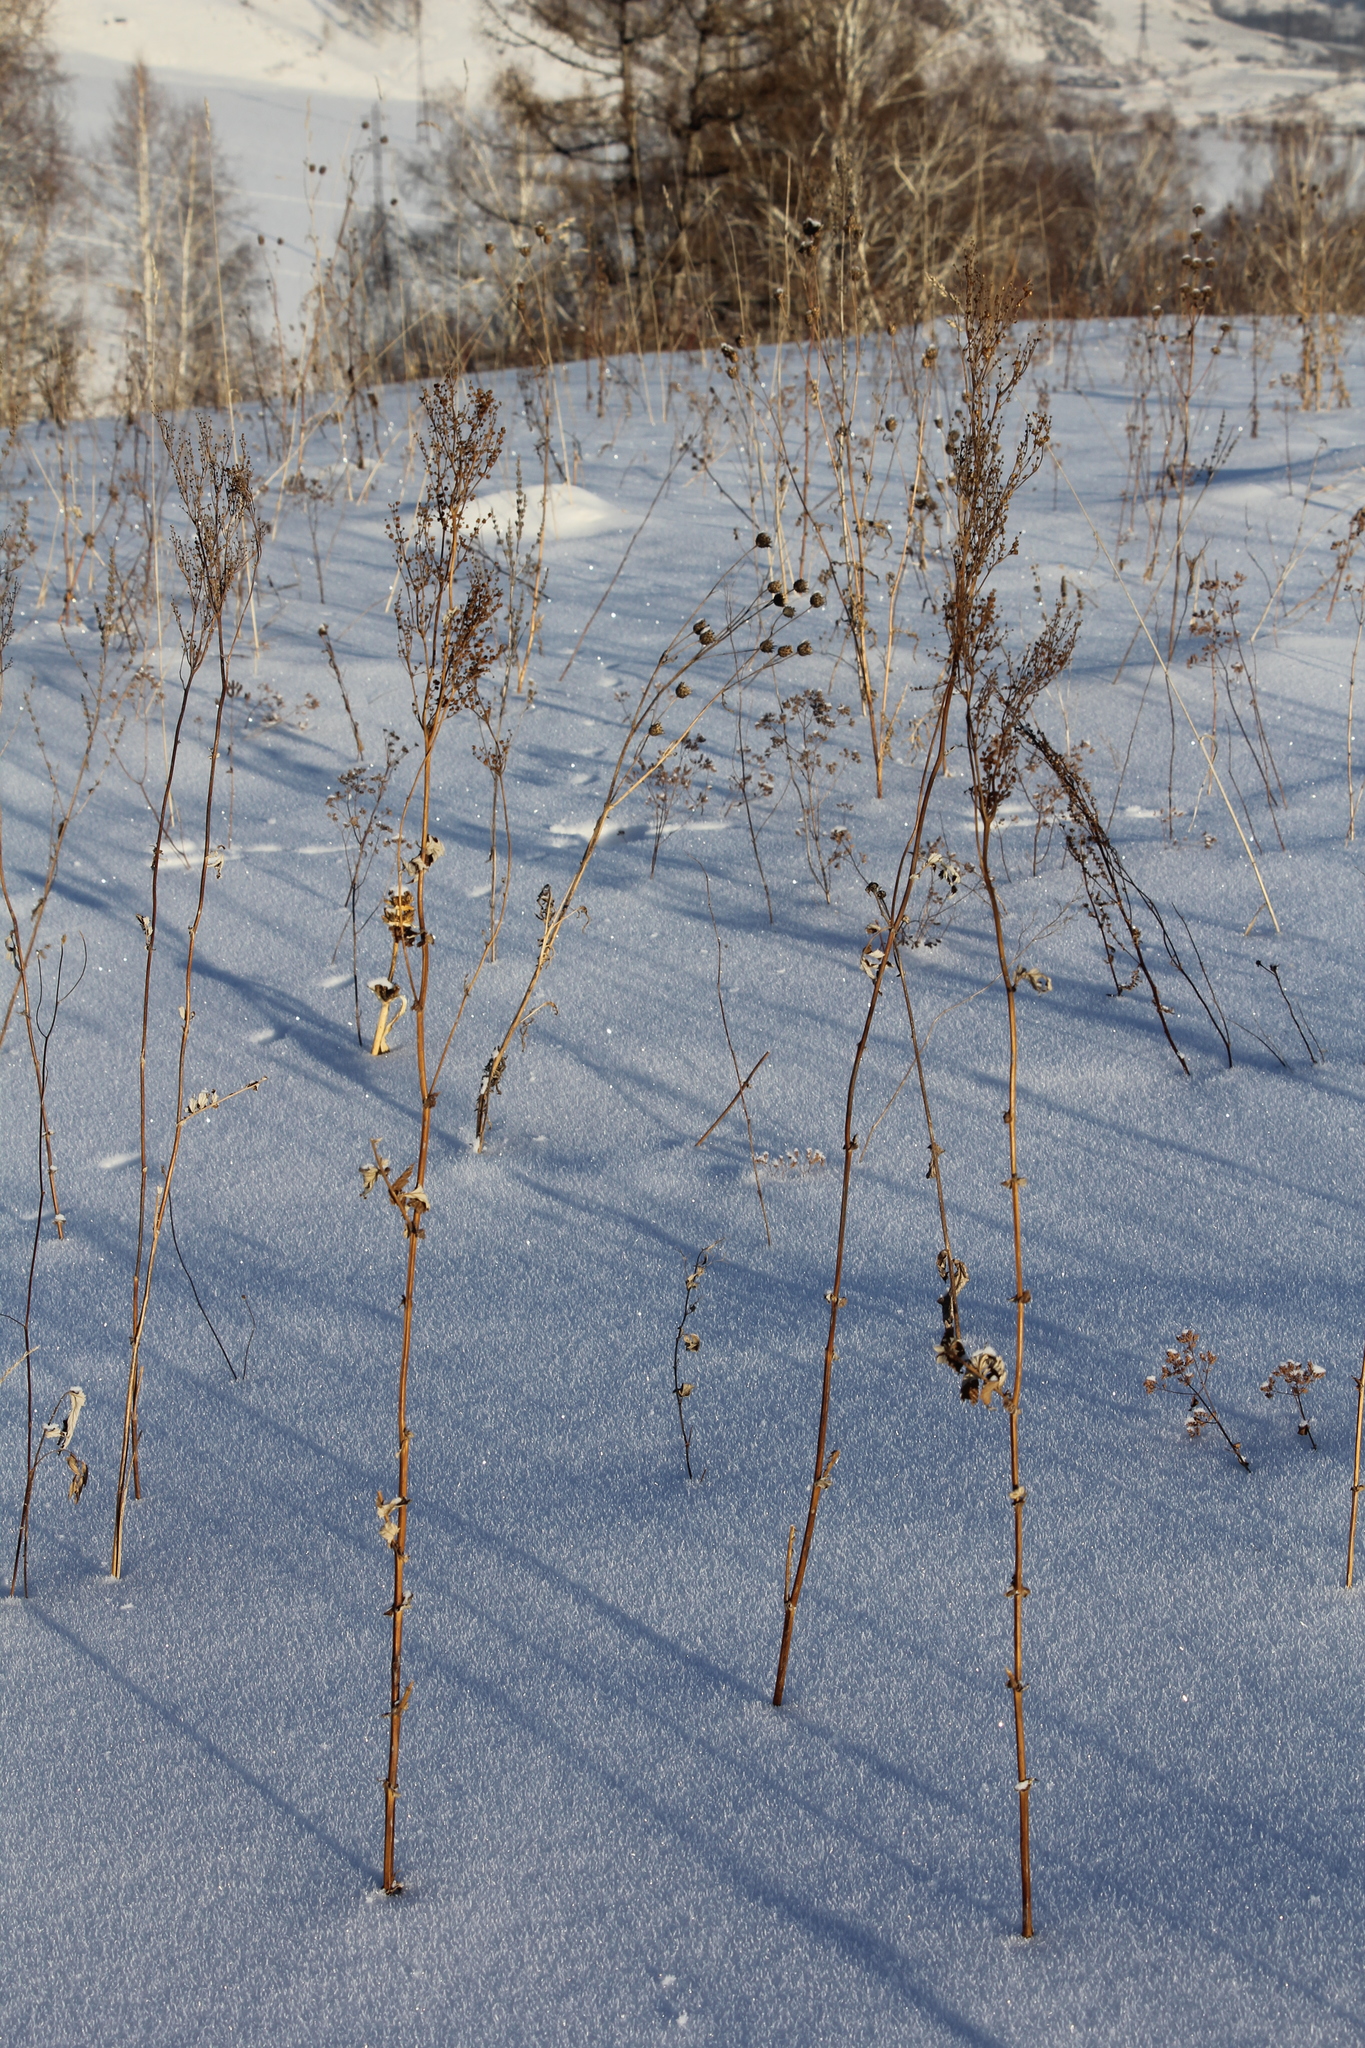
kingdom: Plantae
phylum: Tracheophyta
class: Magnoliopsida
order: Rosales
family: Rosaceae
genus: Filipendula
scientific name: Filipendula ulmaria
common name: Meadowsweet
